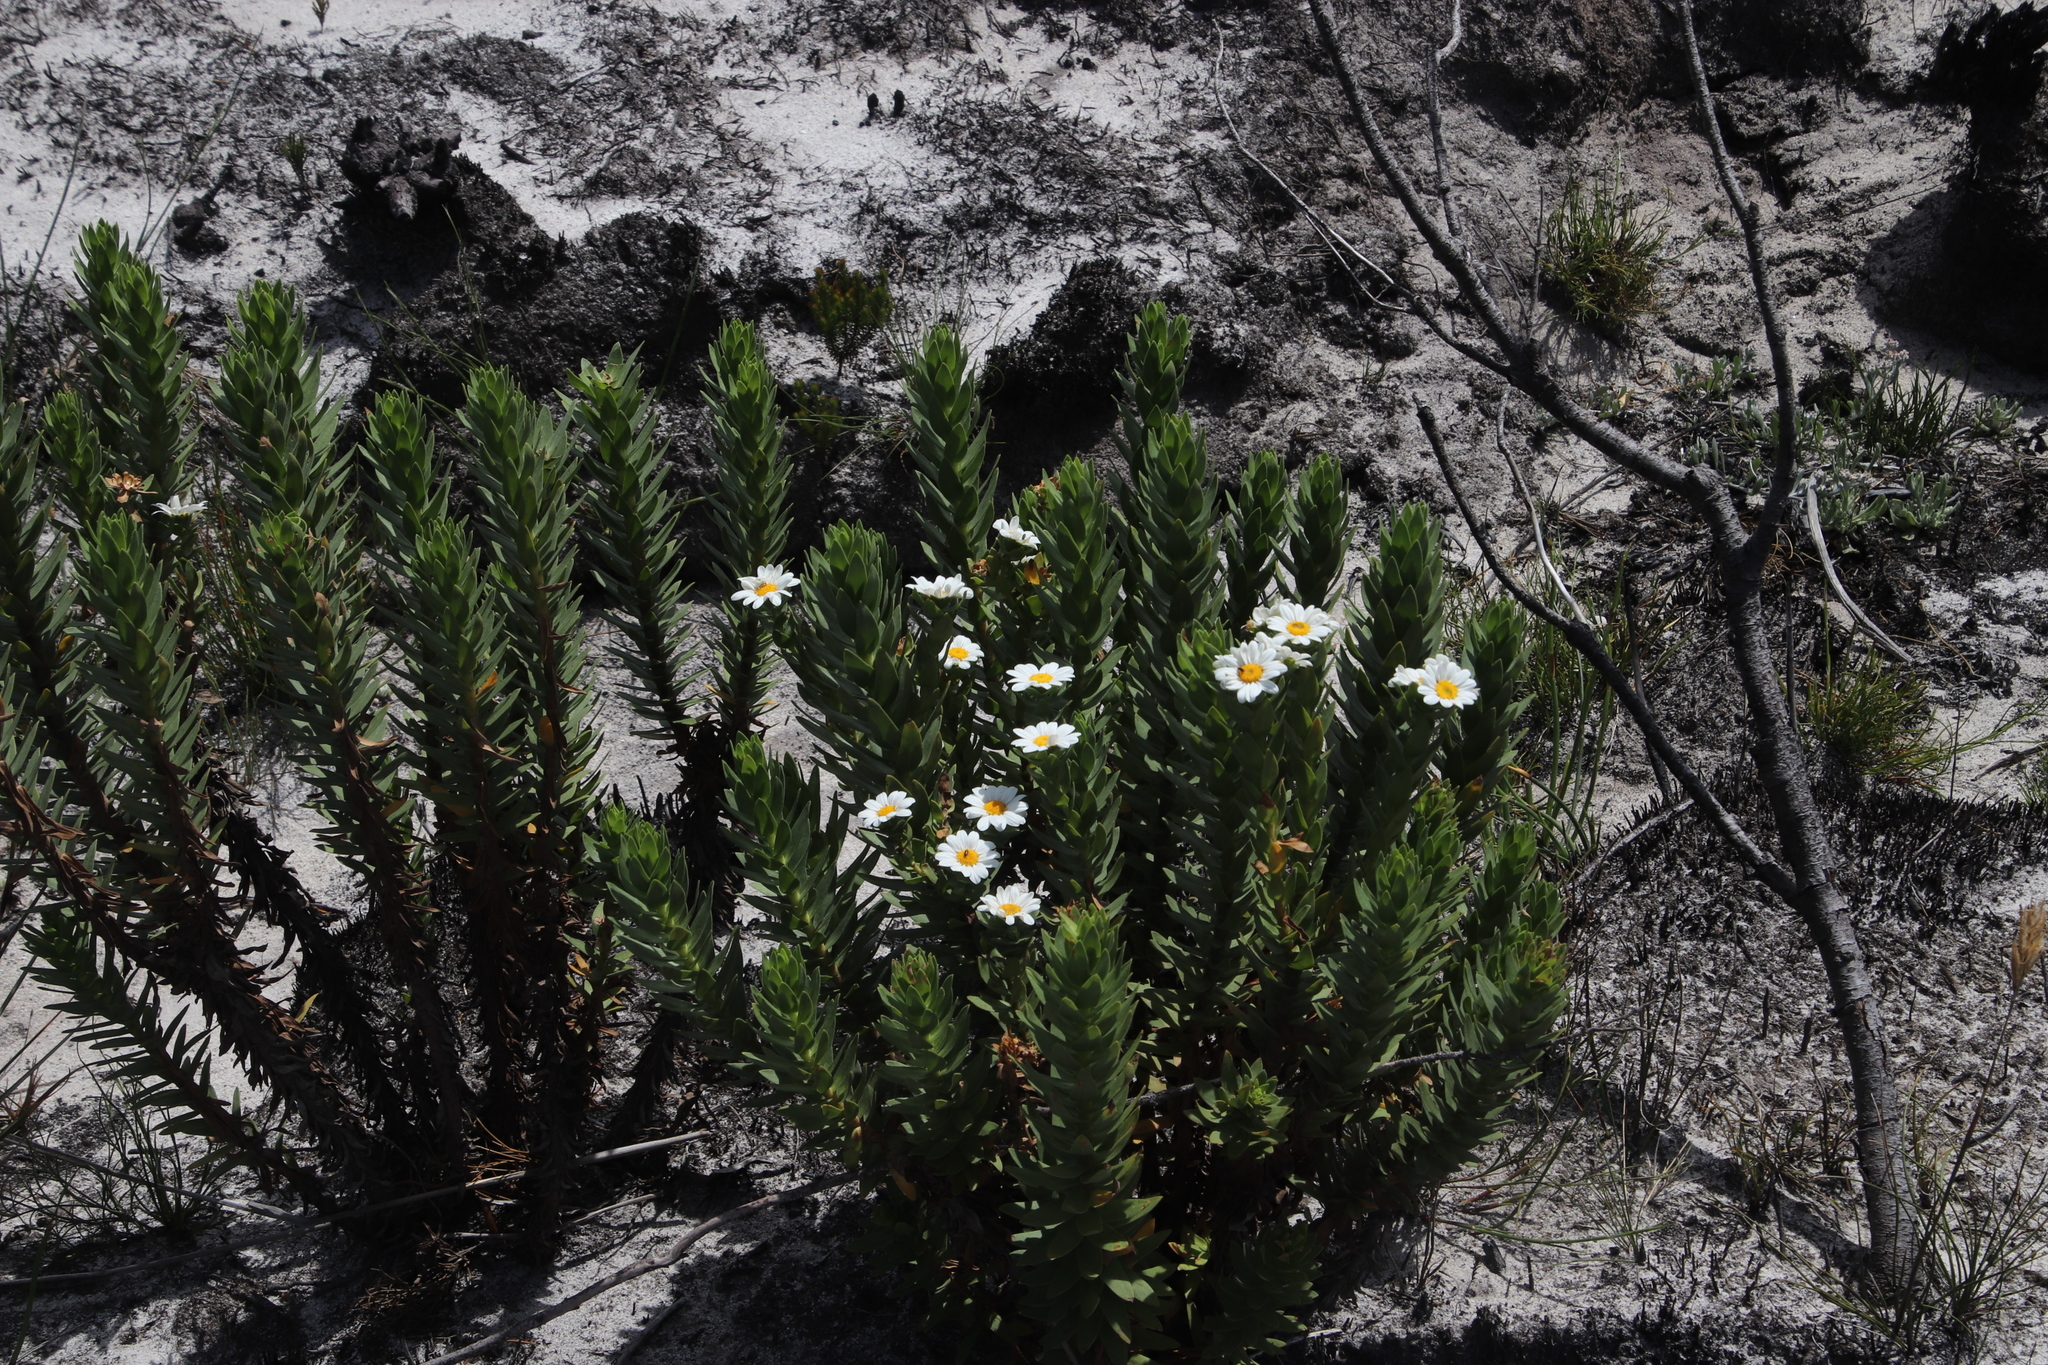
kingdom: Plantae
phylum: Tracheophyta
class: Magnoliopsida
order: Asterales
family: Asteraceae
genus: Osmitopsis
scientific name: Osmitopsis asteriscoides
